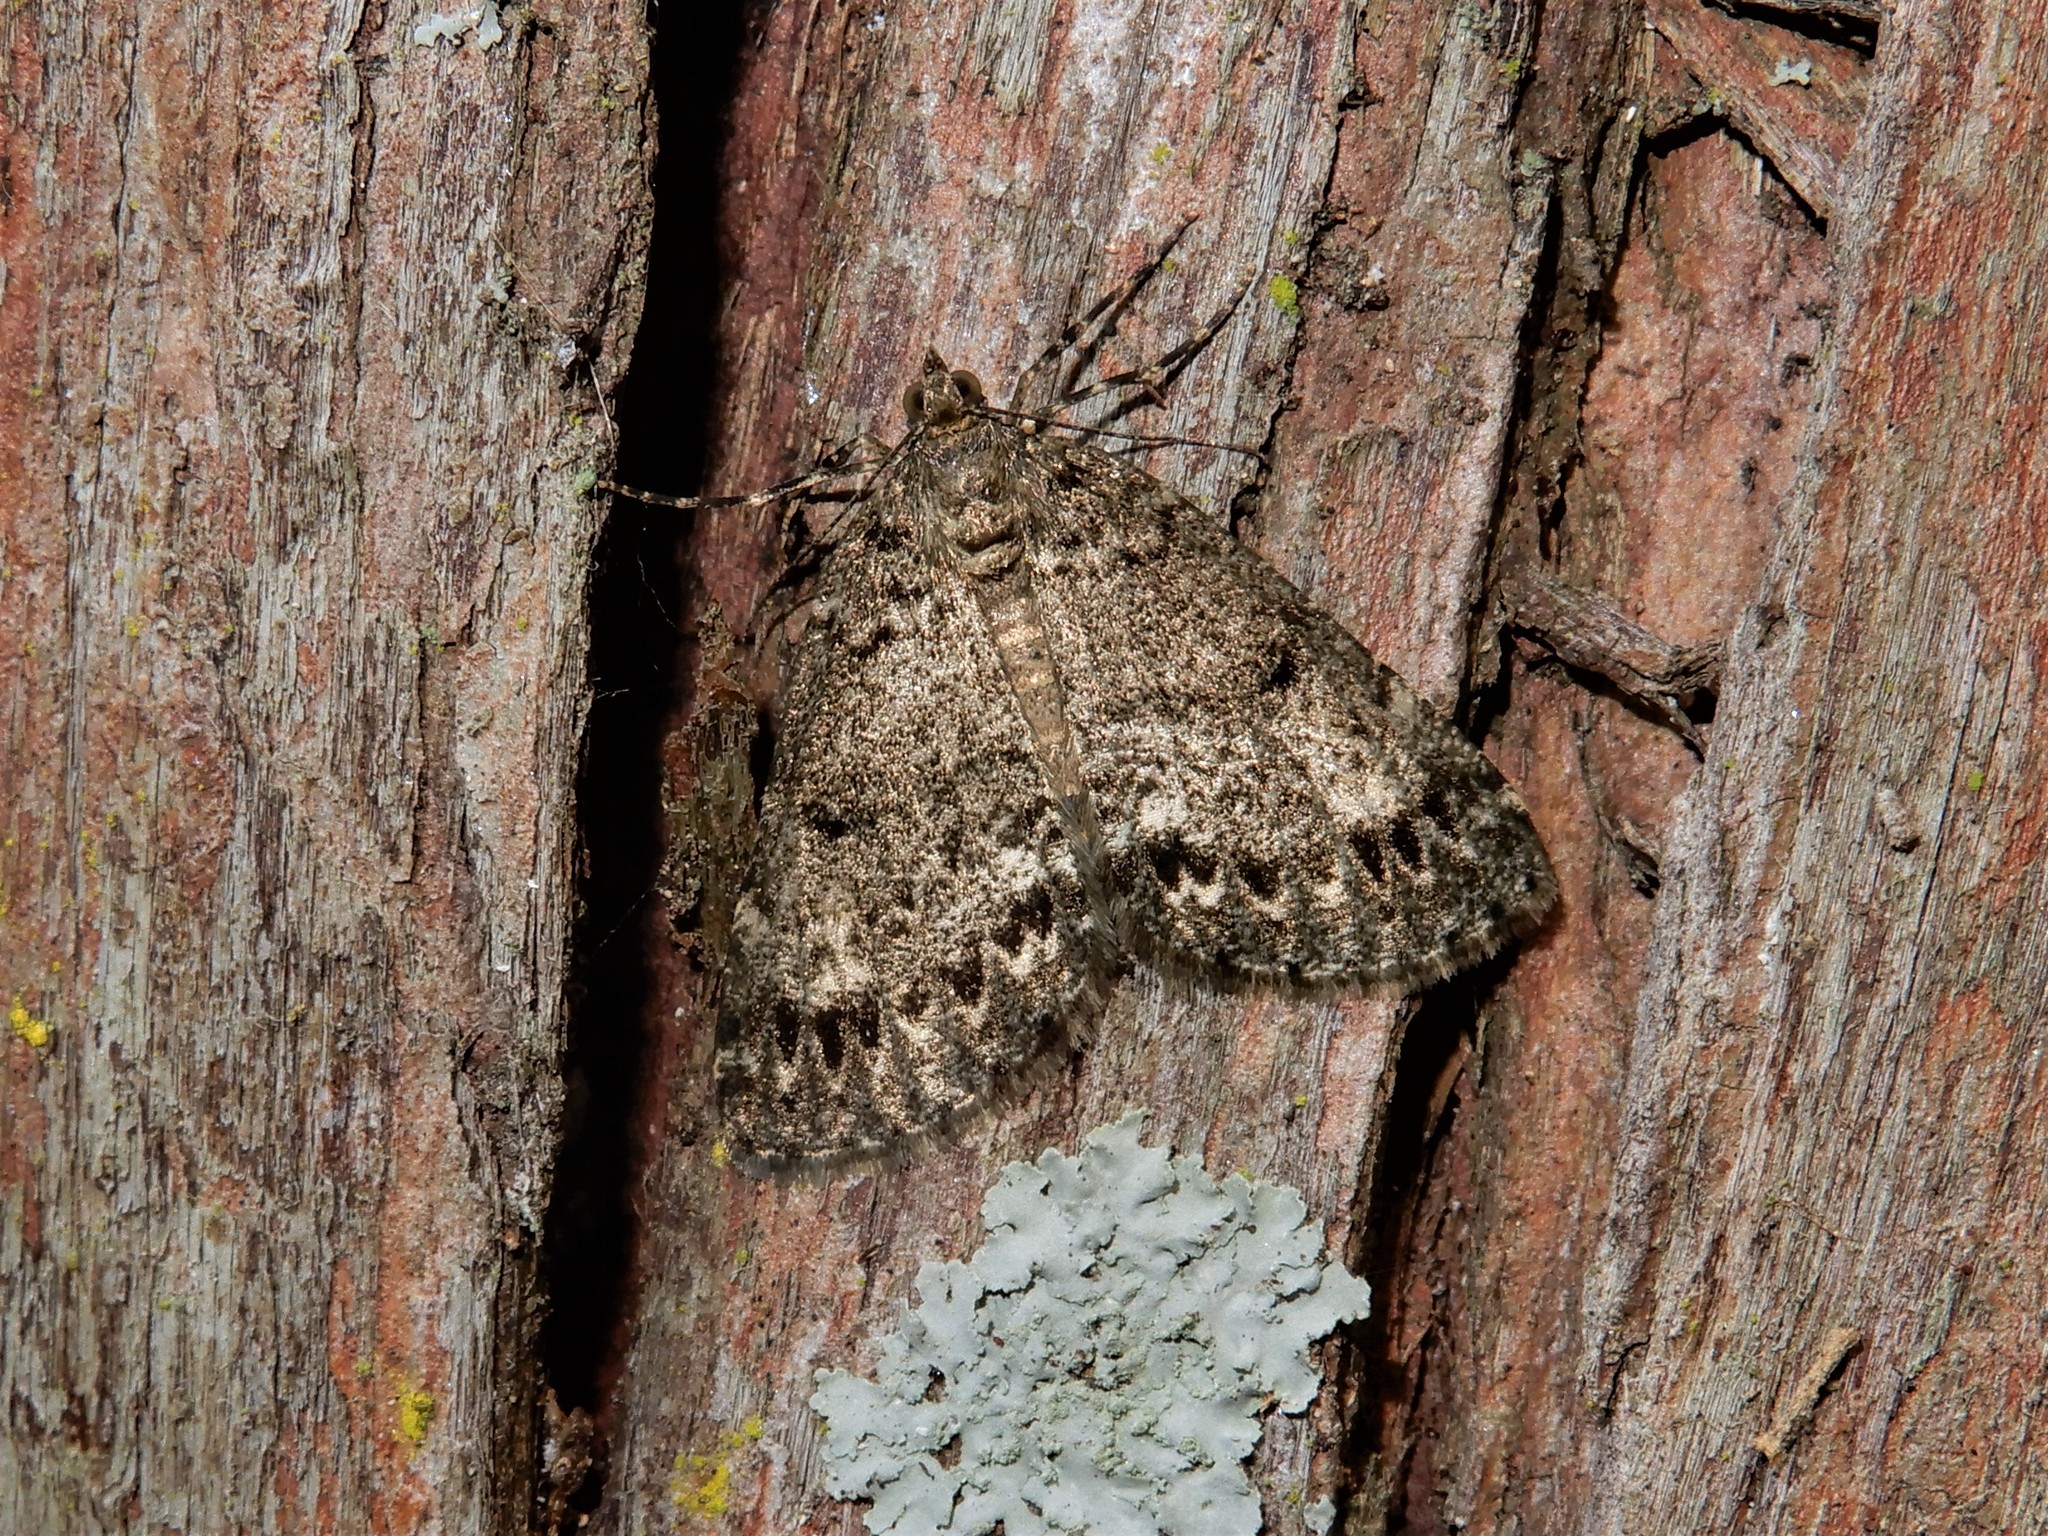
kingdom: Animalia
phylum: Arthropoda
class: Insecta
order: Lepidoptera
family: Geometridae
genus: Pseudocoremia
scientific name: Pseudocoremia indistincta
